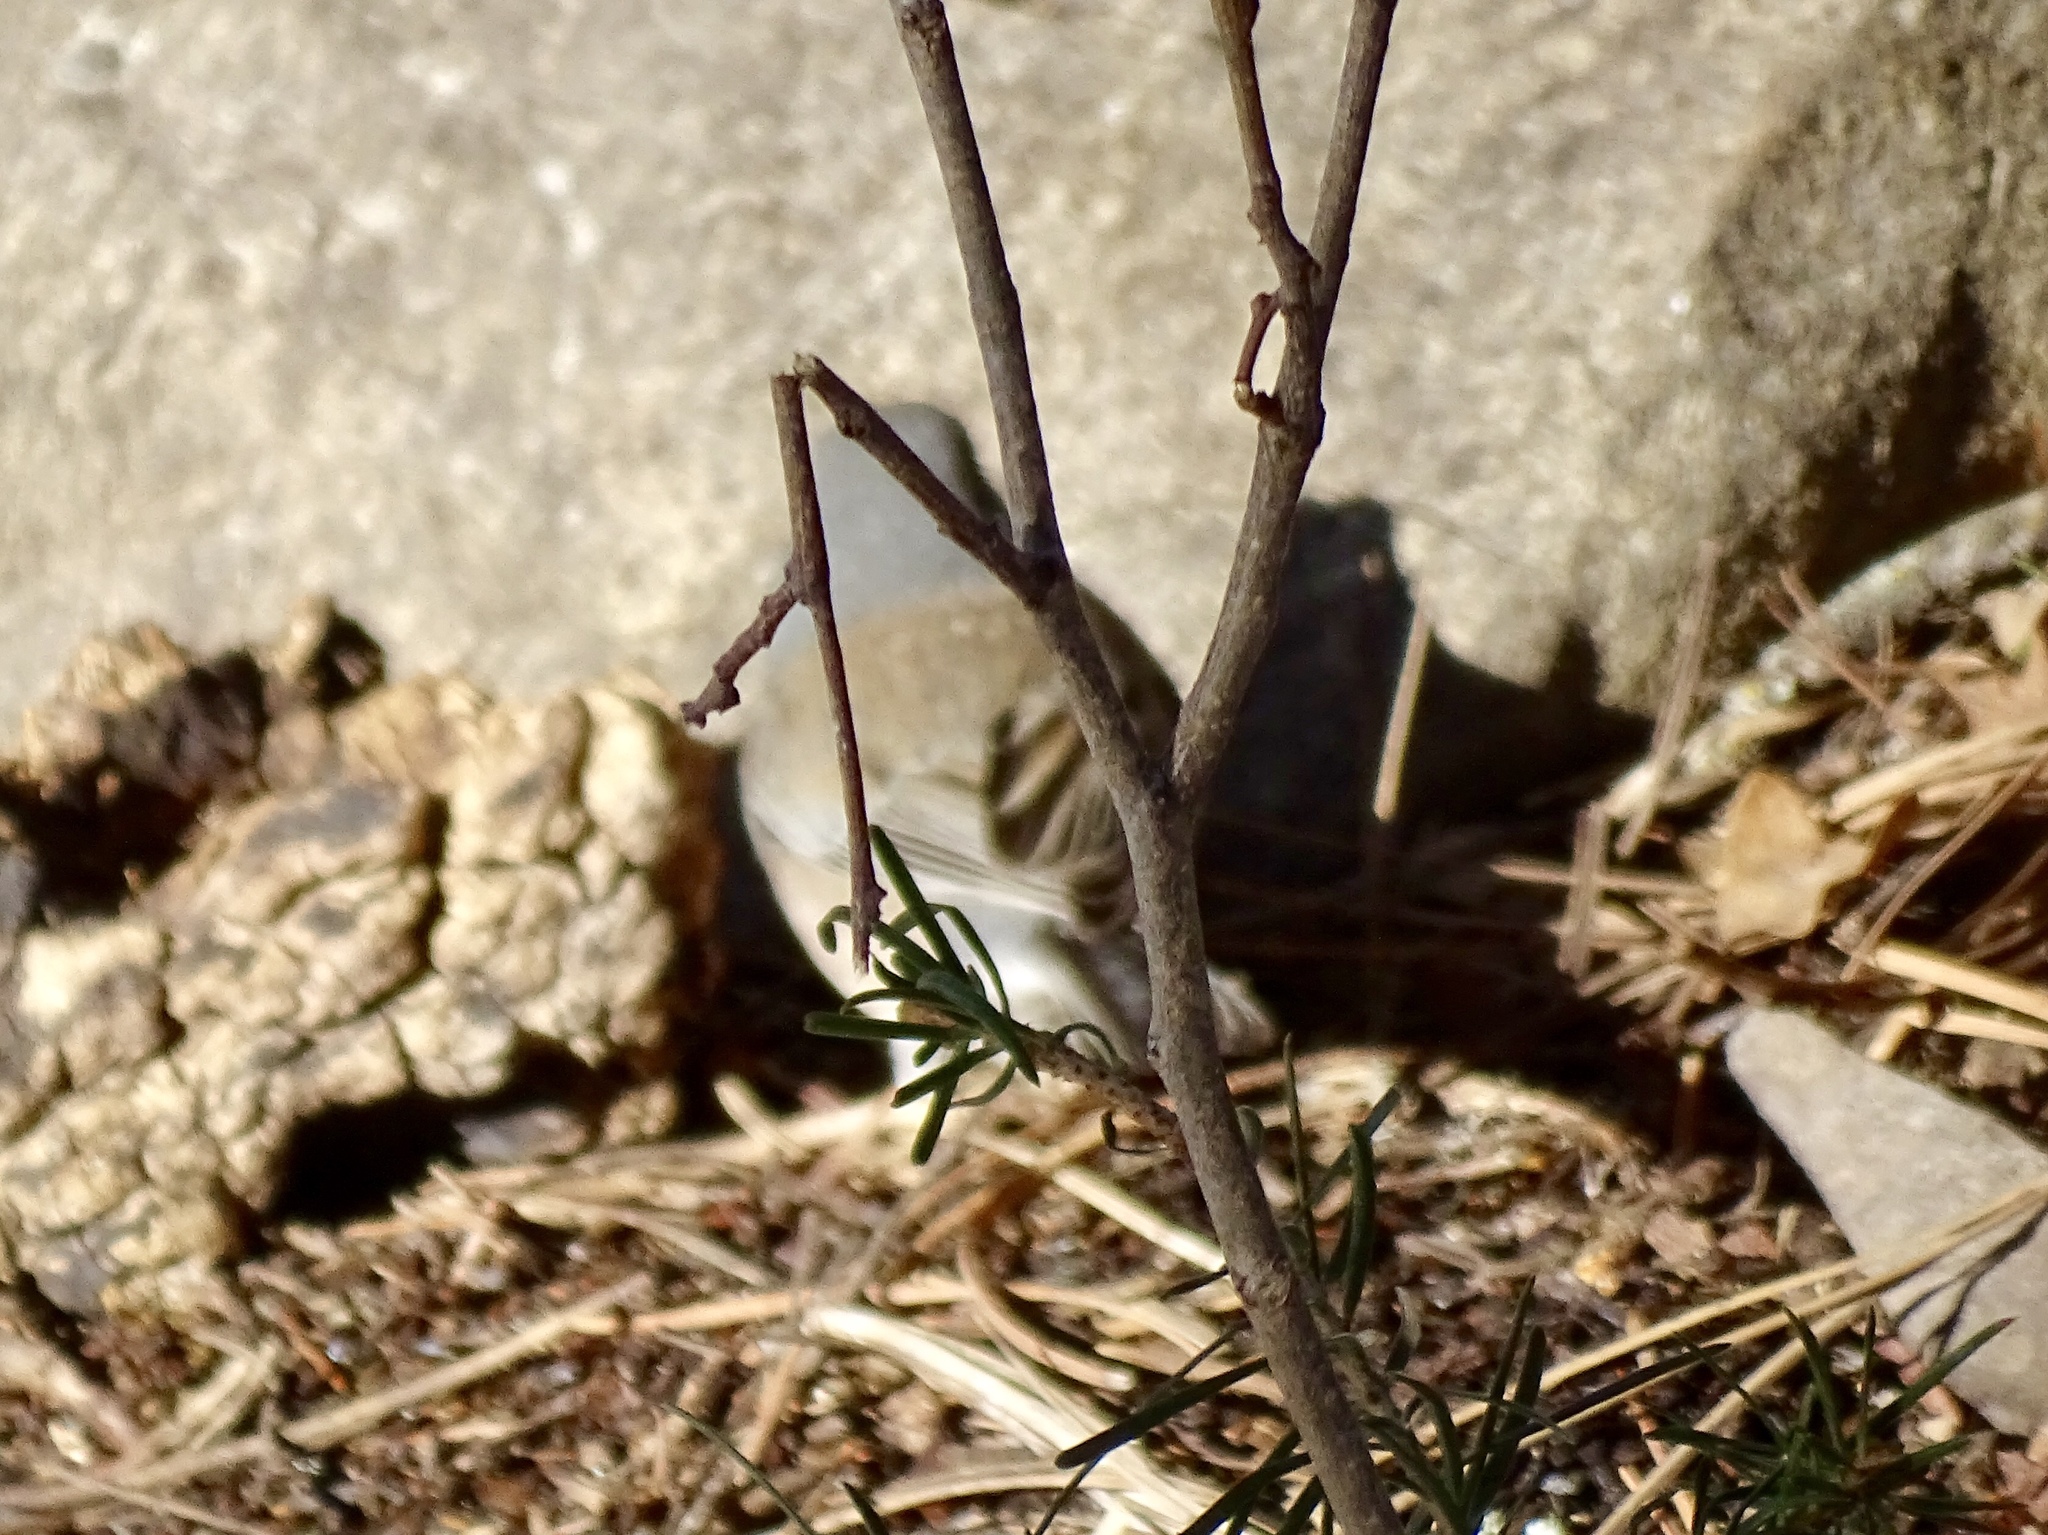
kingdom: Animalia
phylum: Chordata
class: Aves
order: Passeriformes
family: Passerellidae
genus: Junco
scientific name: Junco hyemalis
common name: Dark-eyed junco
